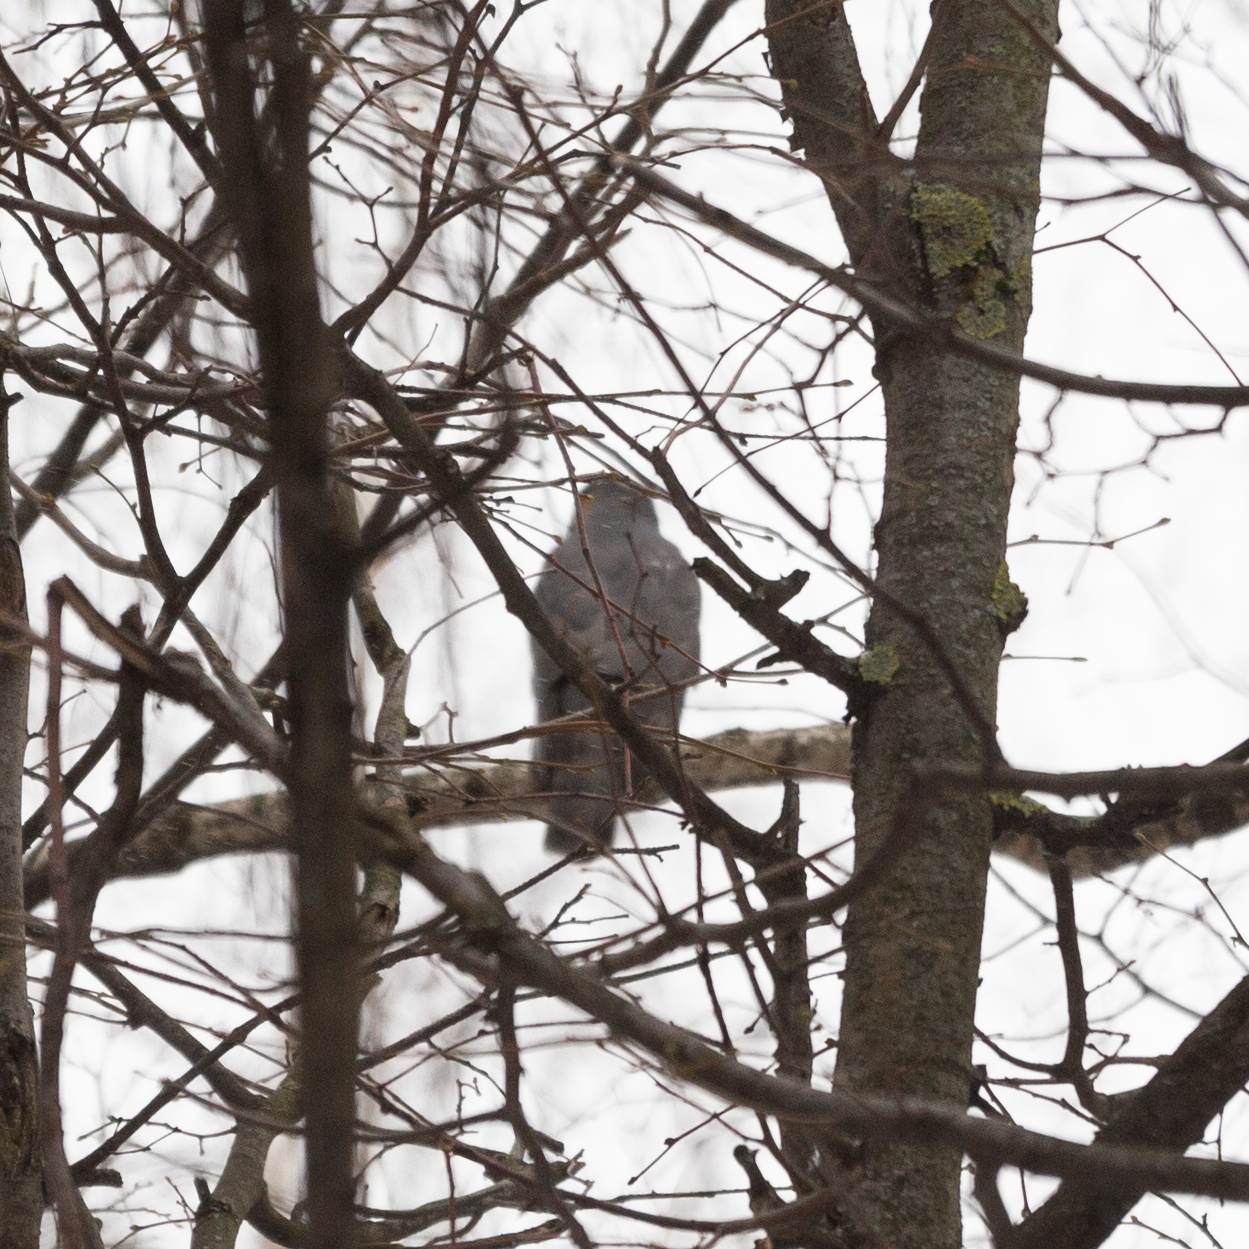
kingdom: Animalia
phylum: Chordata
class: Aves
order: Accipitriformes
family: Accipitridae
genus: Accipiter
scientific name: Accipiter nisus
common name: Eurasian sparrowhawk
